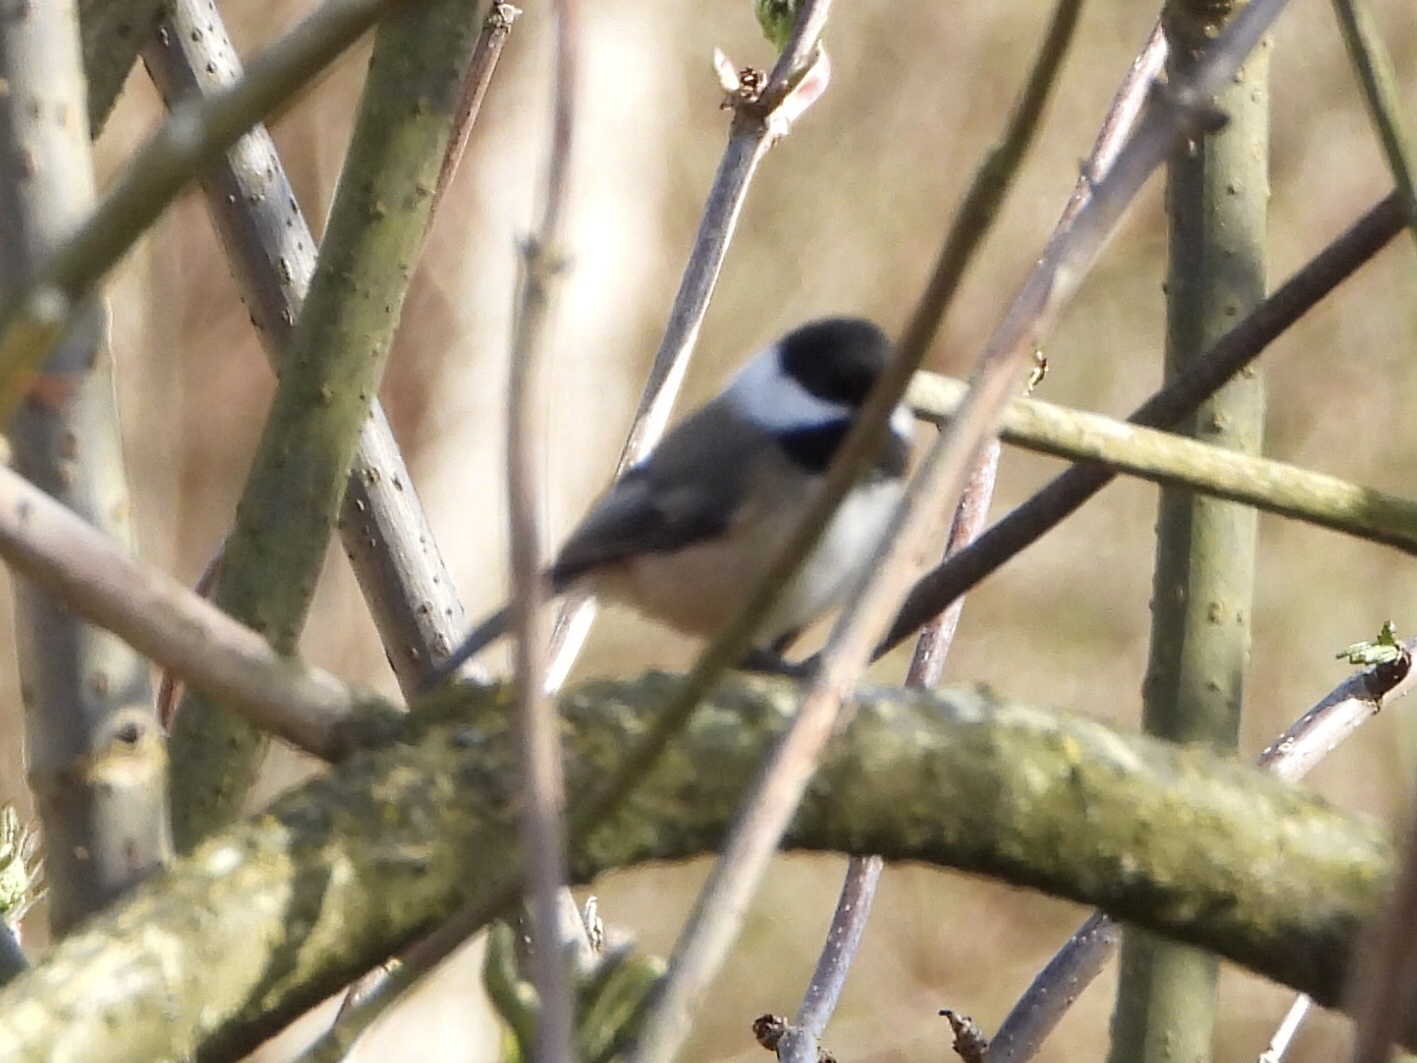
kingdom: Animalia
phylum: Chordata
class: Aves
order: Passeriformes
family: Paridae
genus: Poecile
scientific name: Poecile atricapillus
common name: Black-capped chickadee
